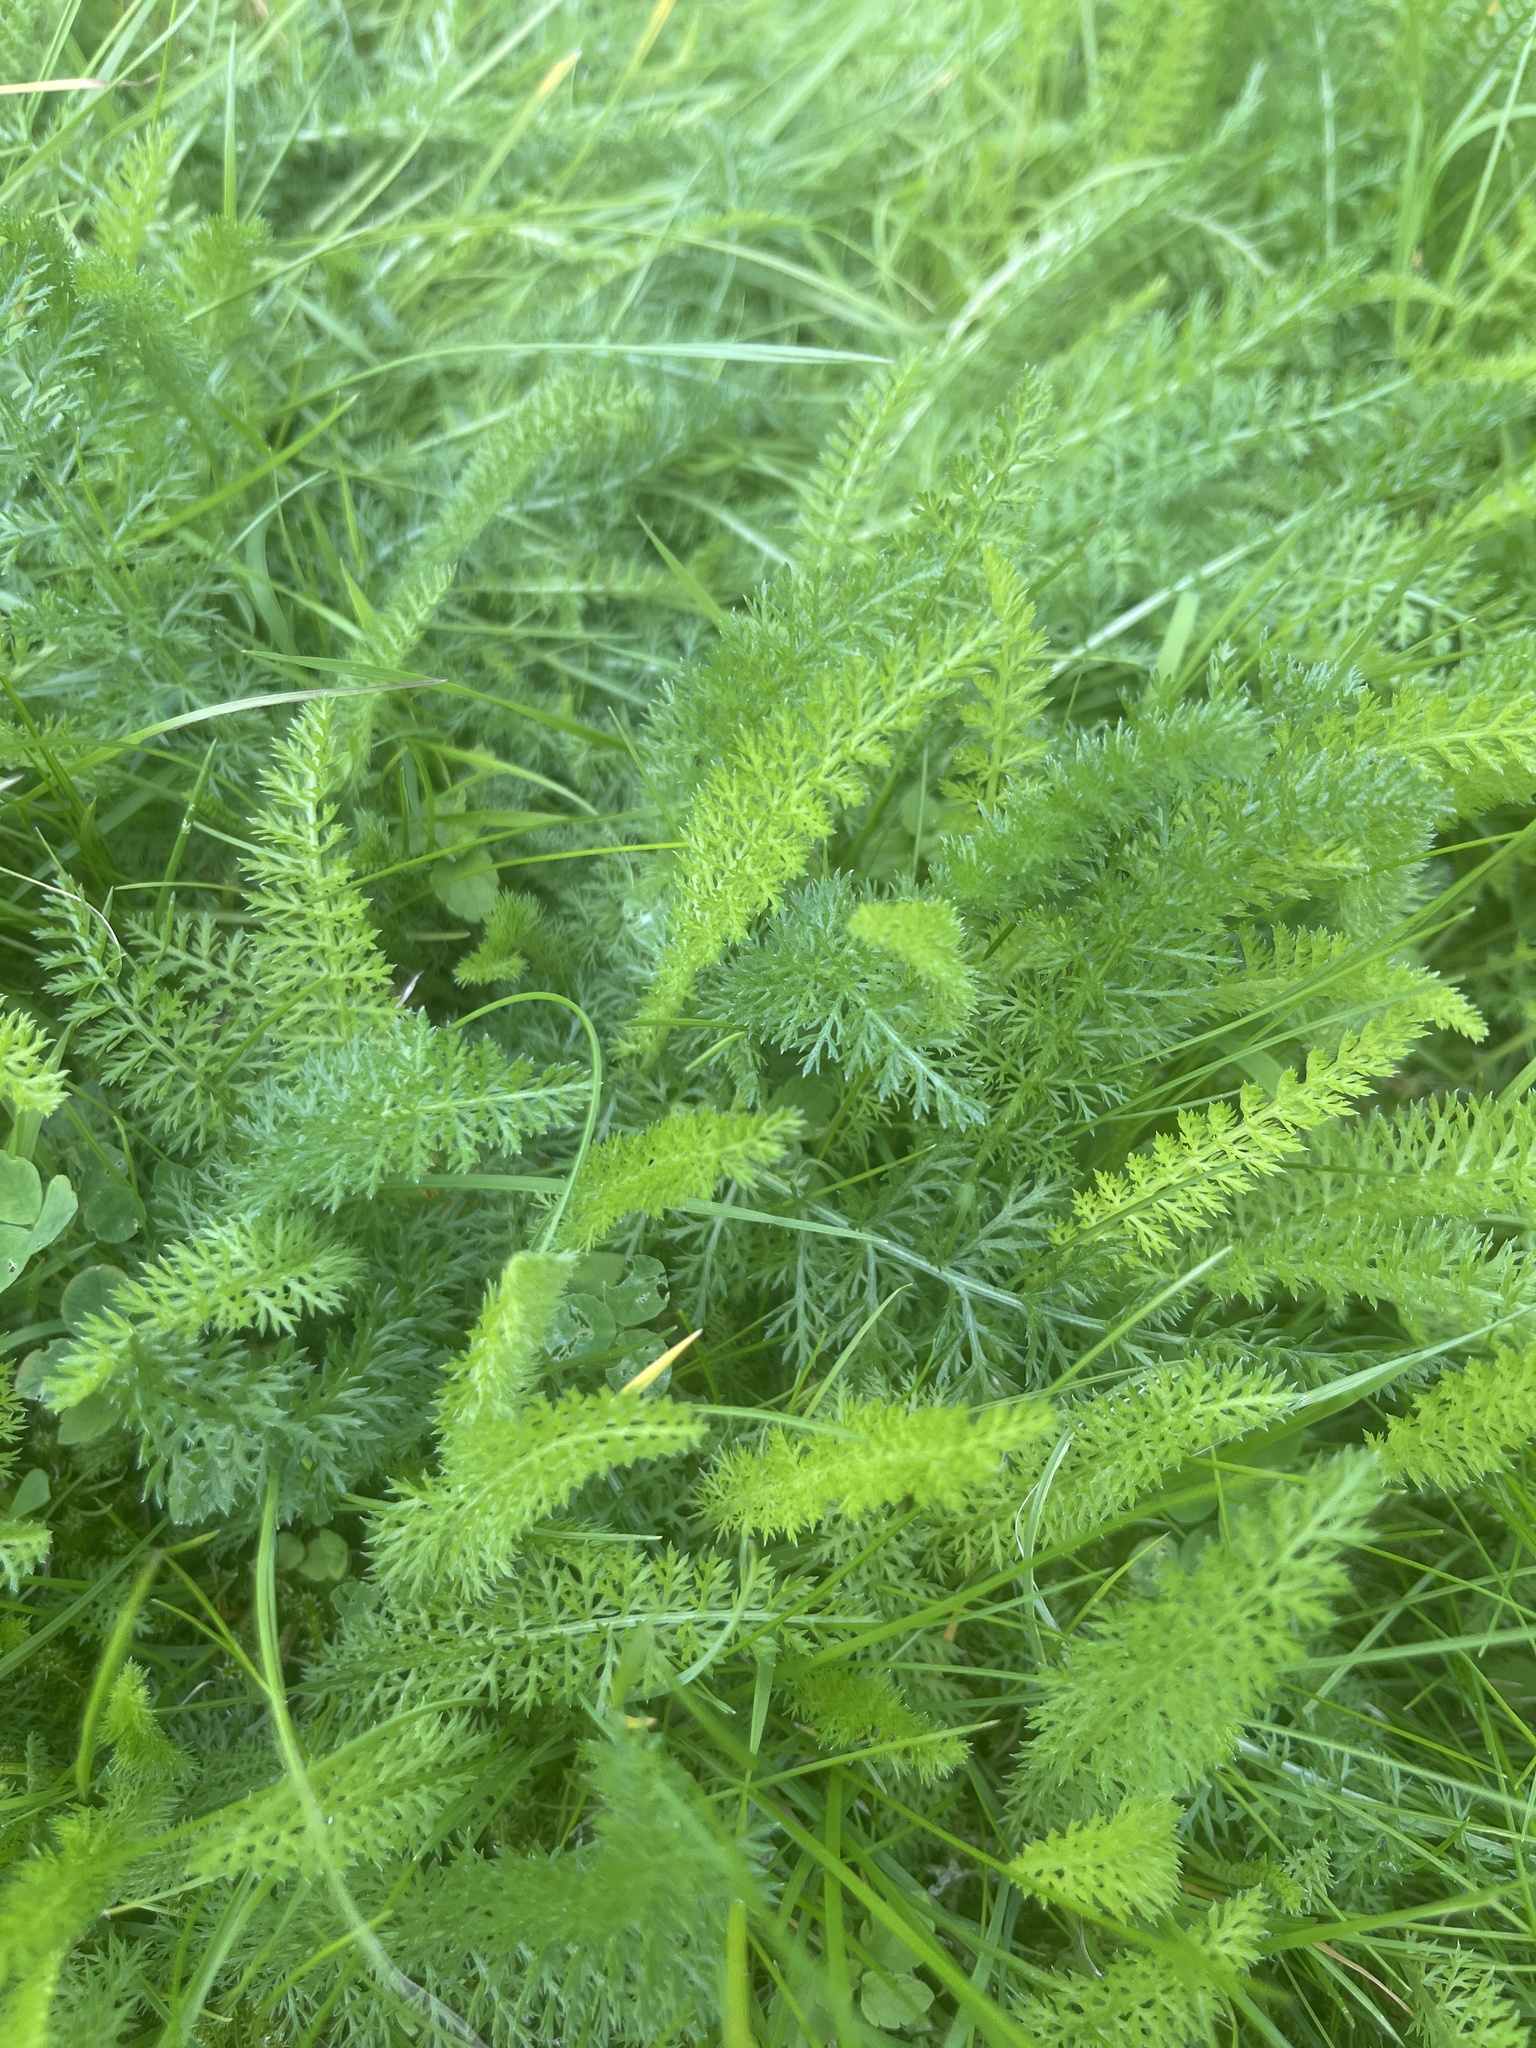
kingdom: Plantae
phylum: Tracheophyta
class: Magnoliopsida
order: Asterales
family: Asteraceae
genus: Achillea
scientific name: Achillea millefolium
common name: Yarrow
